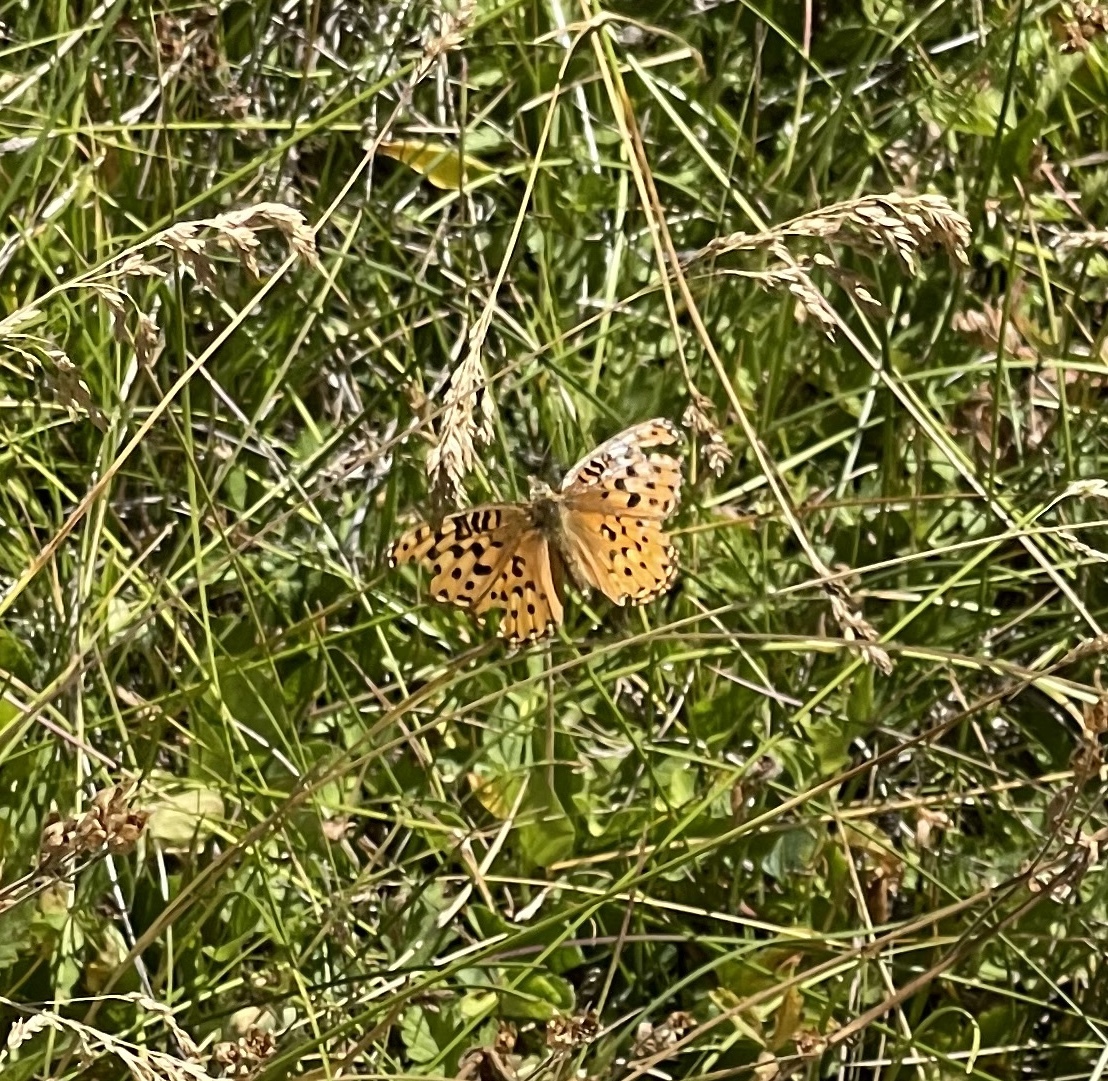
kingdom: Animalia
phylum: Arthropoda
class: Insecta
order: Lepidoptera
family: Nymphalidae
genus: Speyeria
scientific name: Speyeria mormonia
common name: Mormon fritillary
